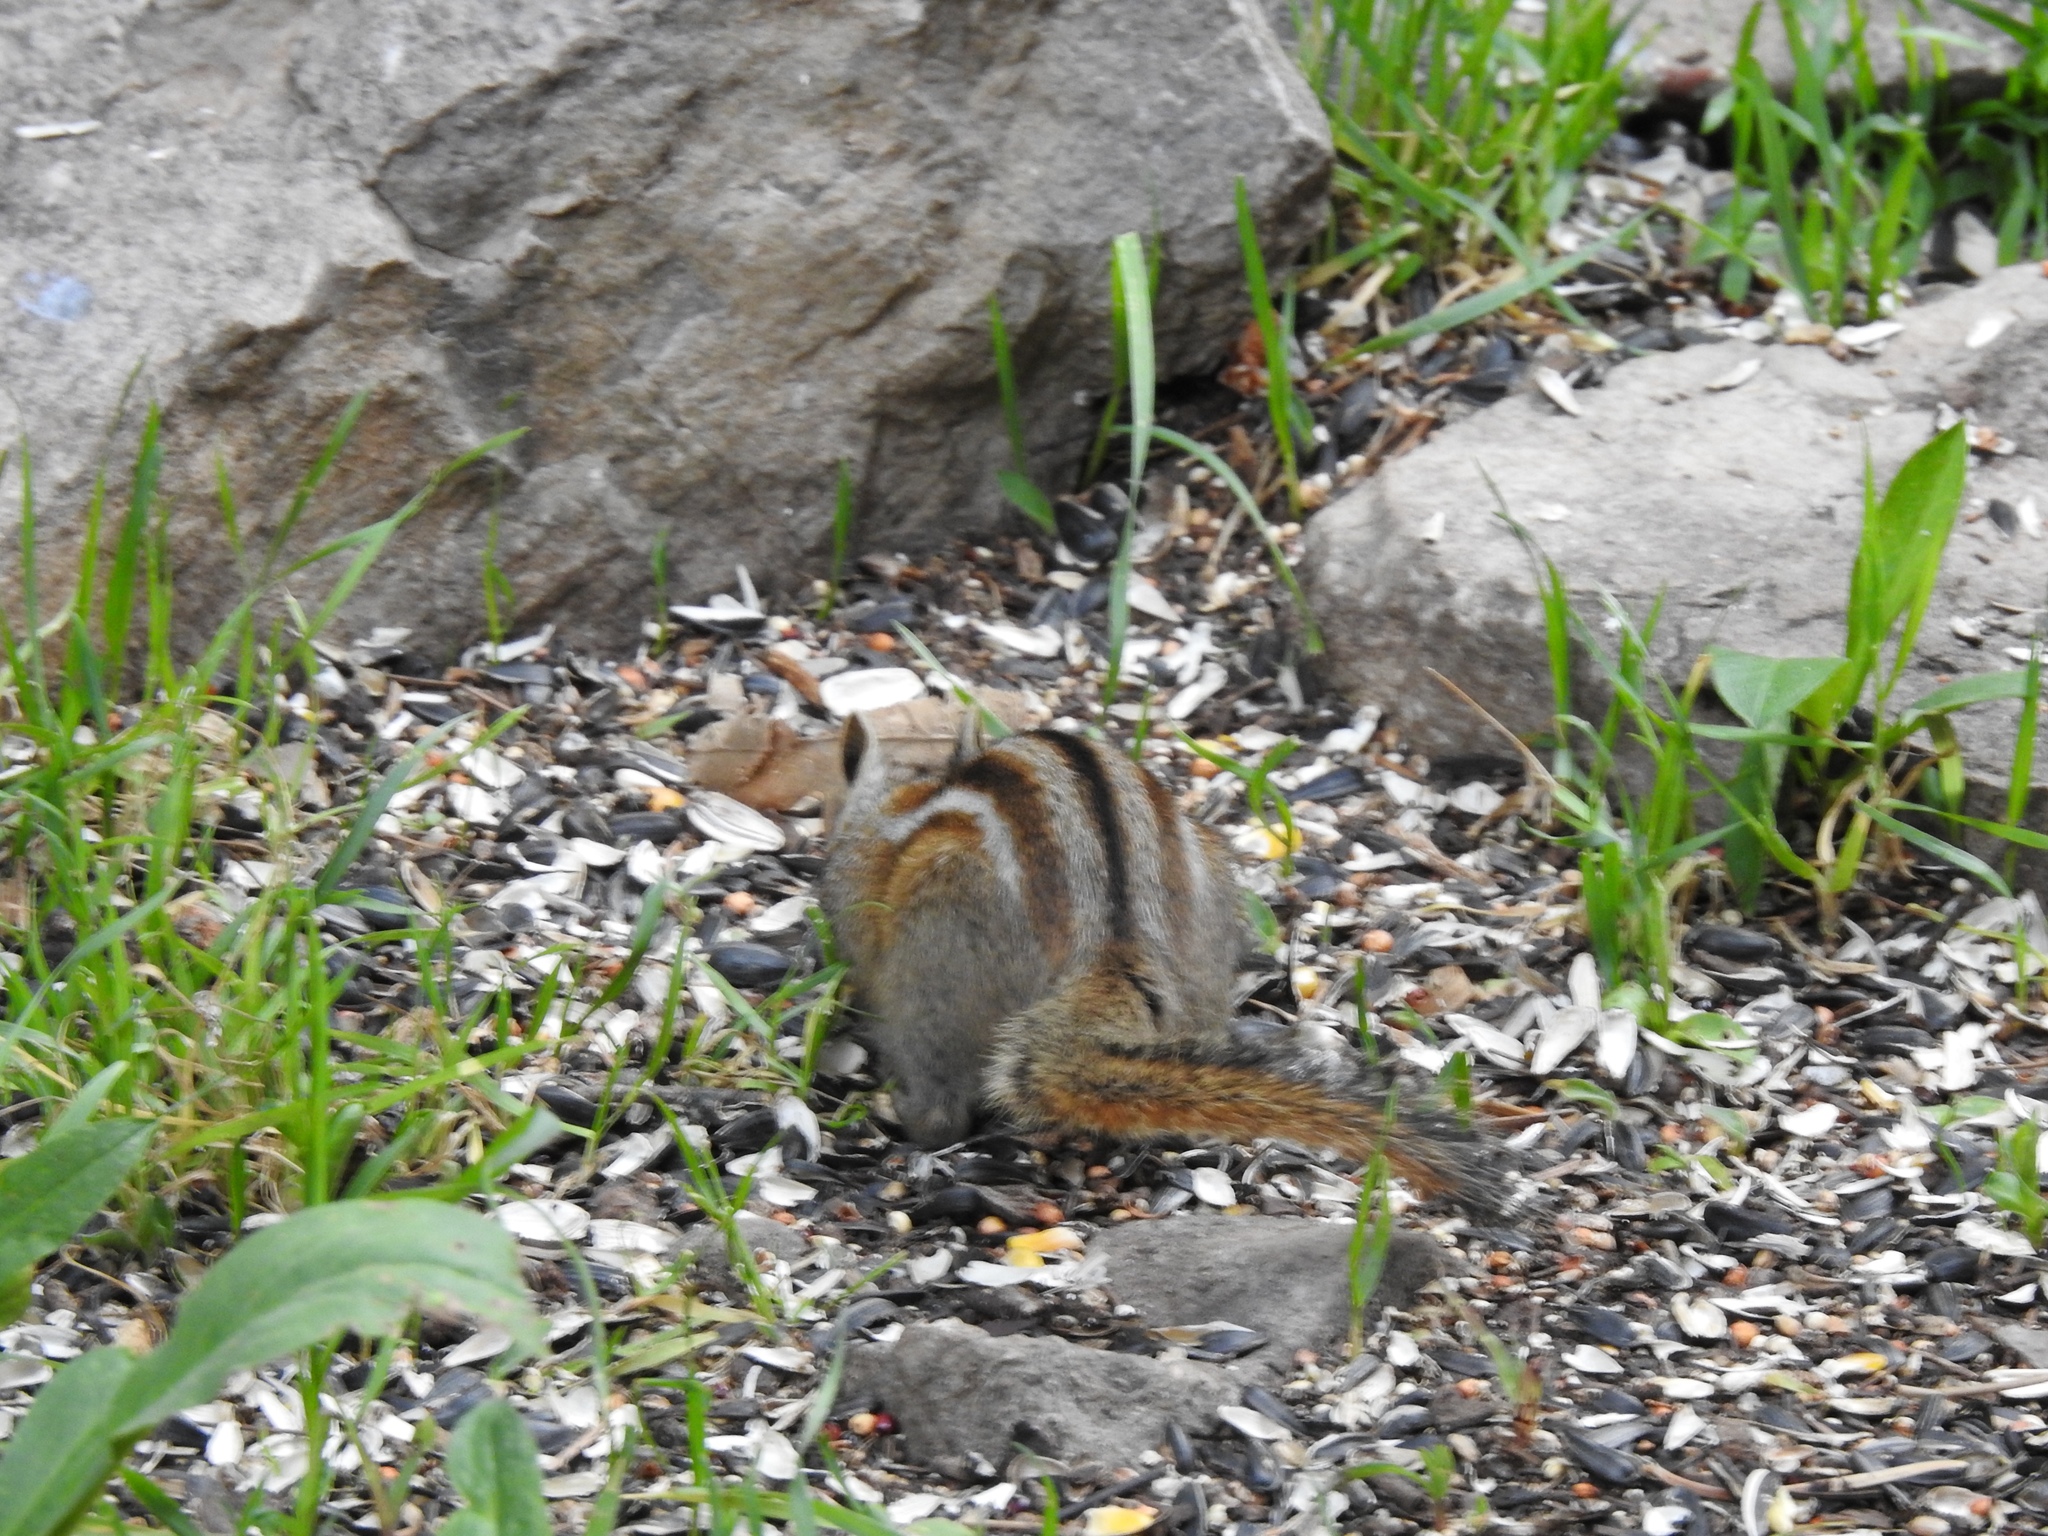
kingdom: Animalia
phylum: Chordata
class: Mammalia
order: Rodentia
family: Sciuridae
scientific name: Sciuridae
